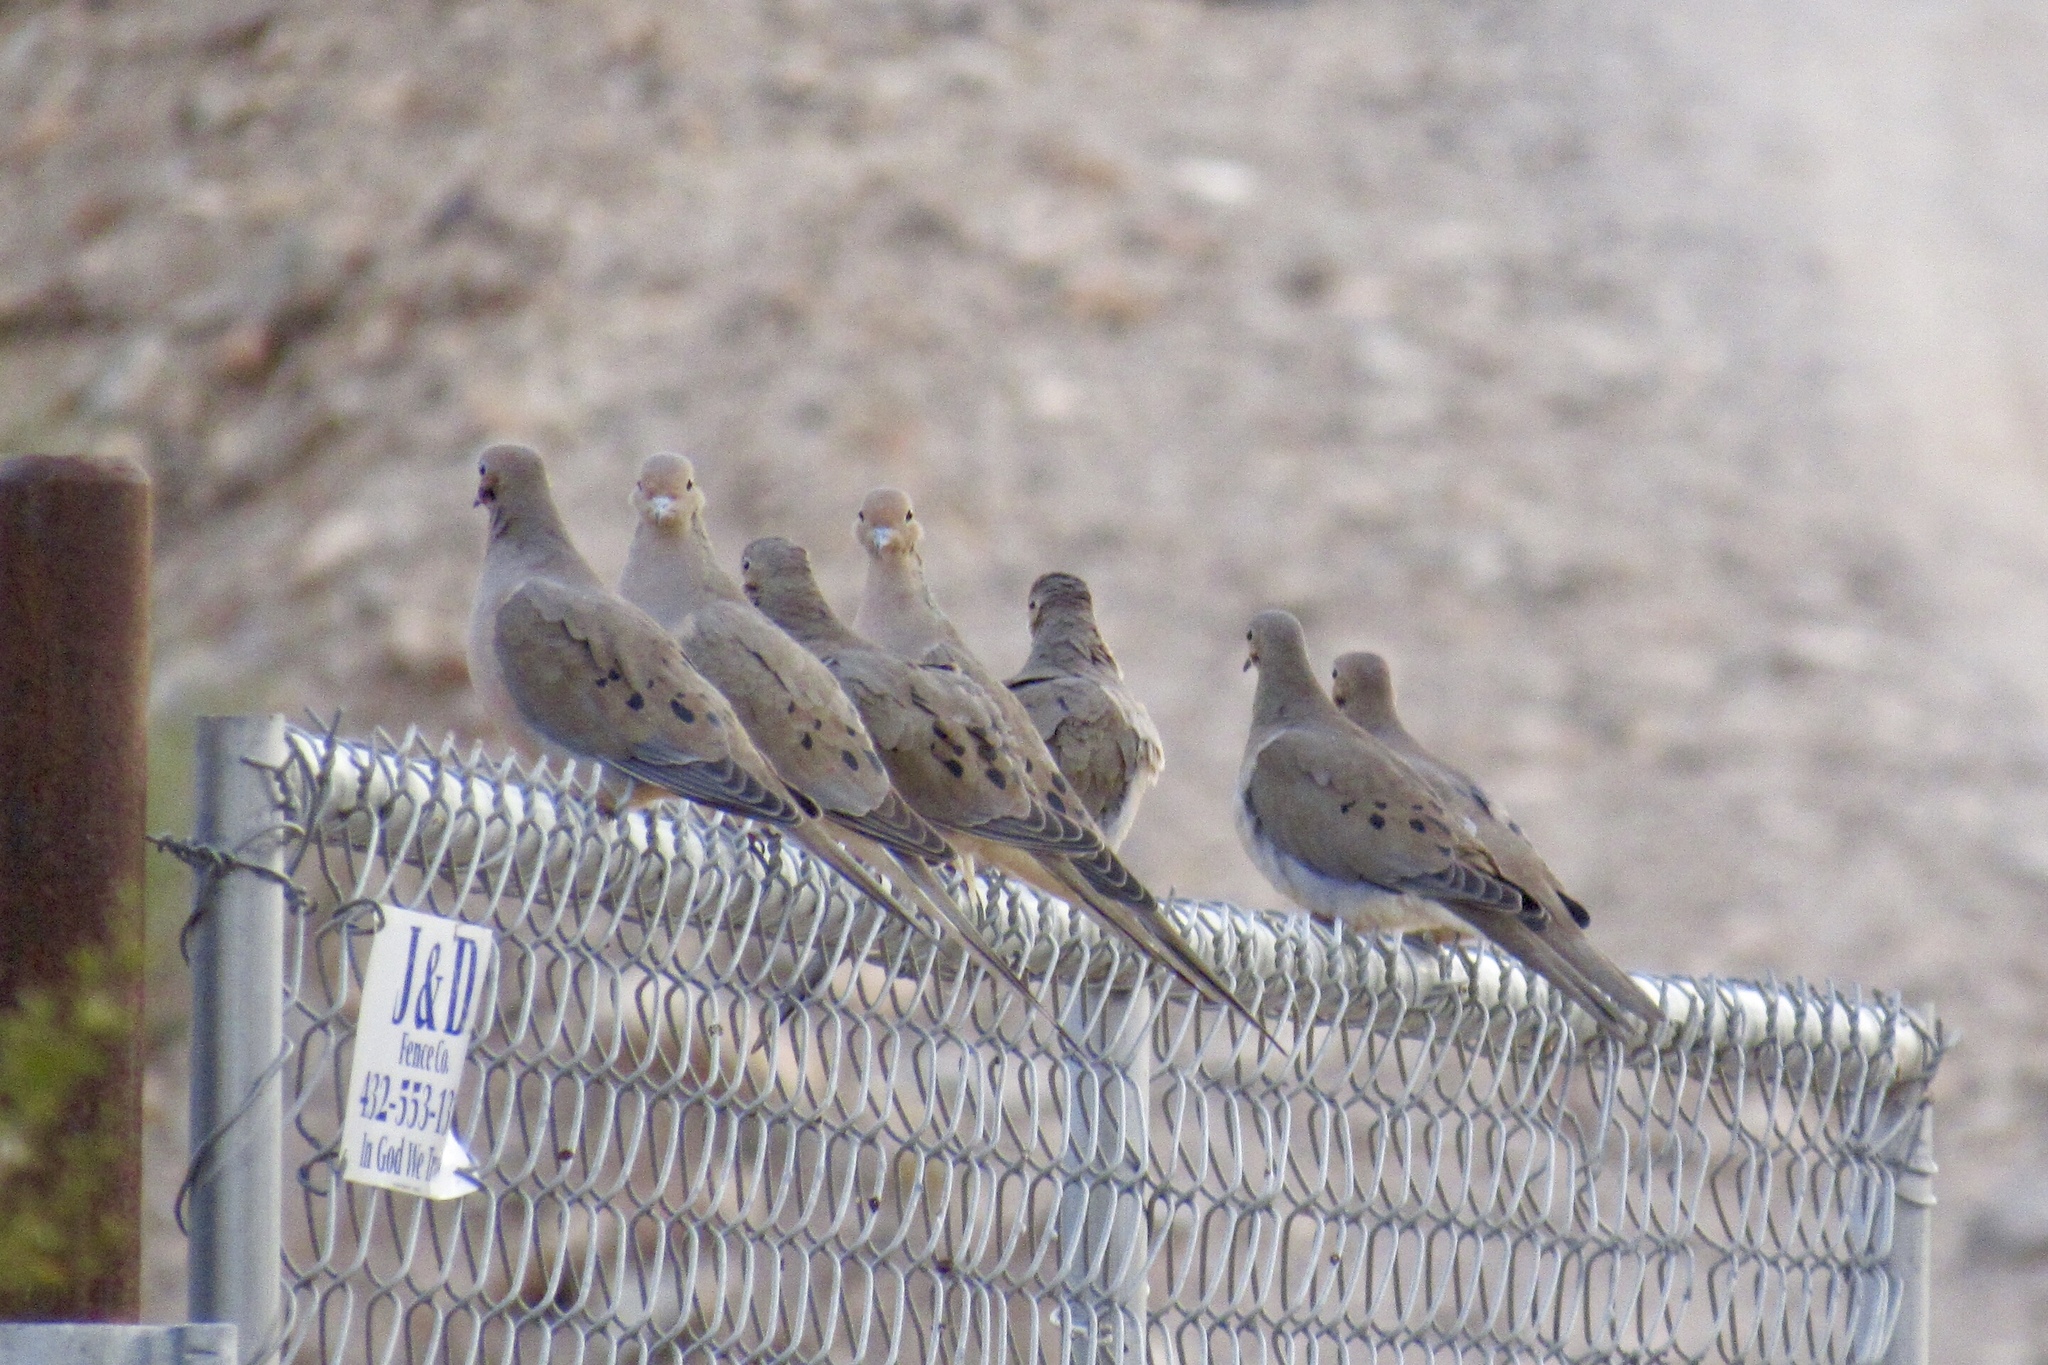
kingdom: Animalia
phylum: Chordata
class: Aves
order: Columbiformes
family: Columbidae
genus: Zenaida
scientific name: Zenaida macroura
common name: Mourning dove
